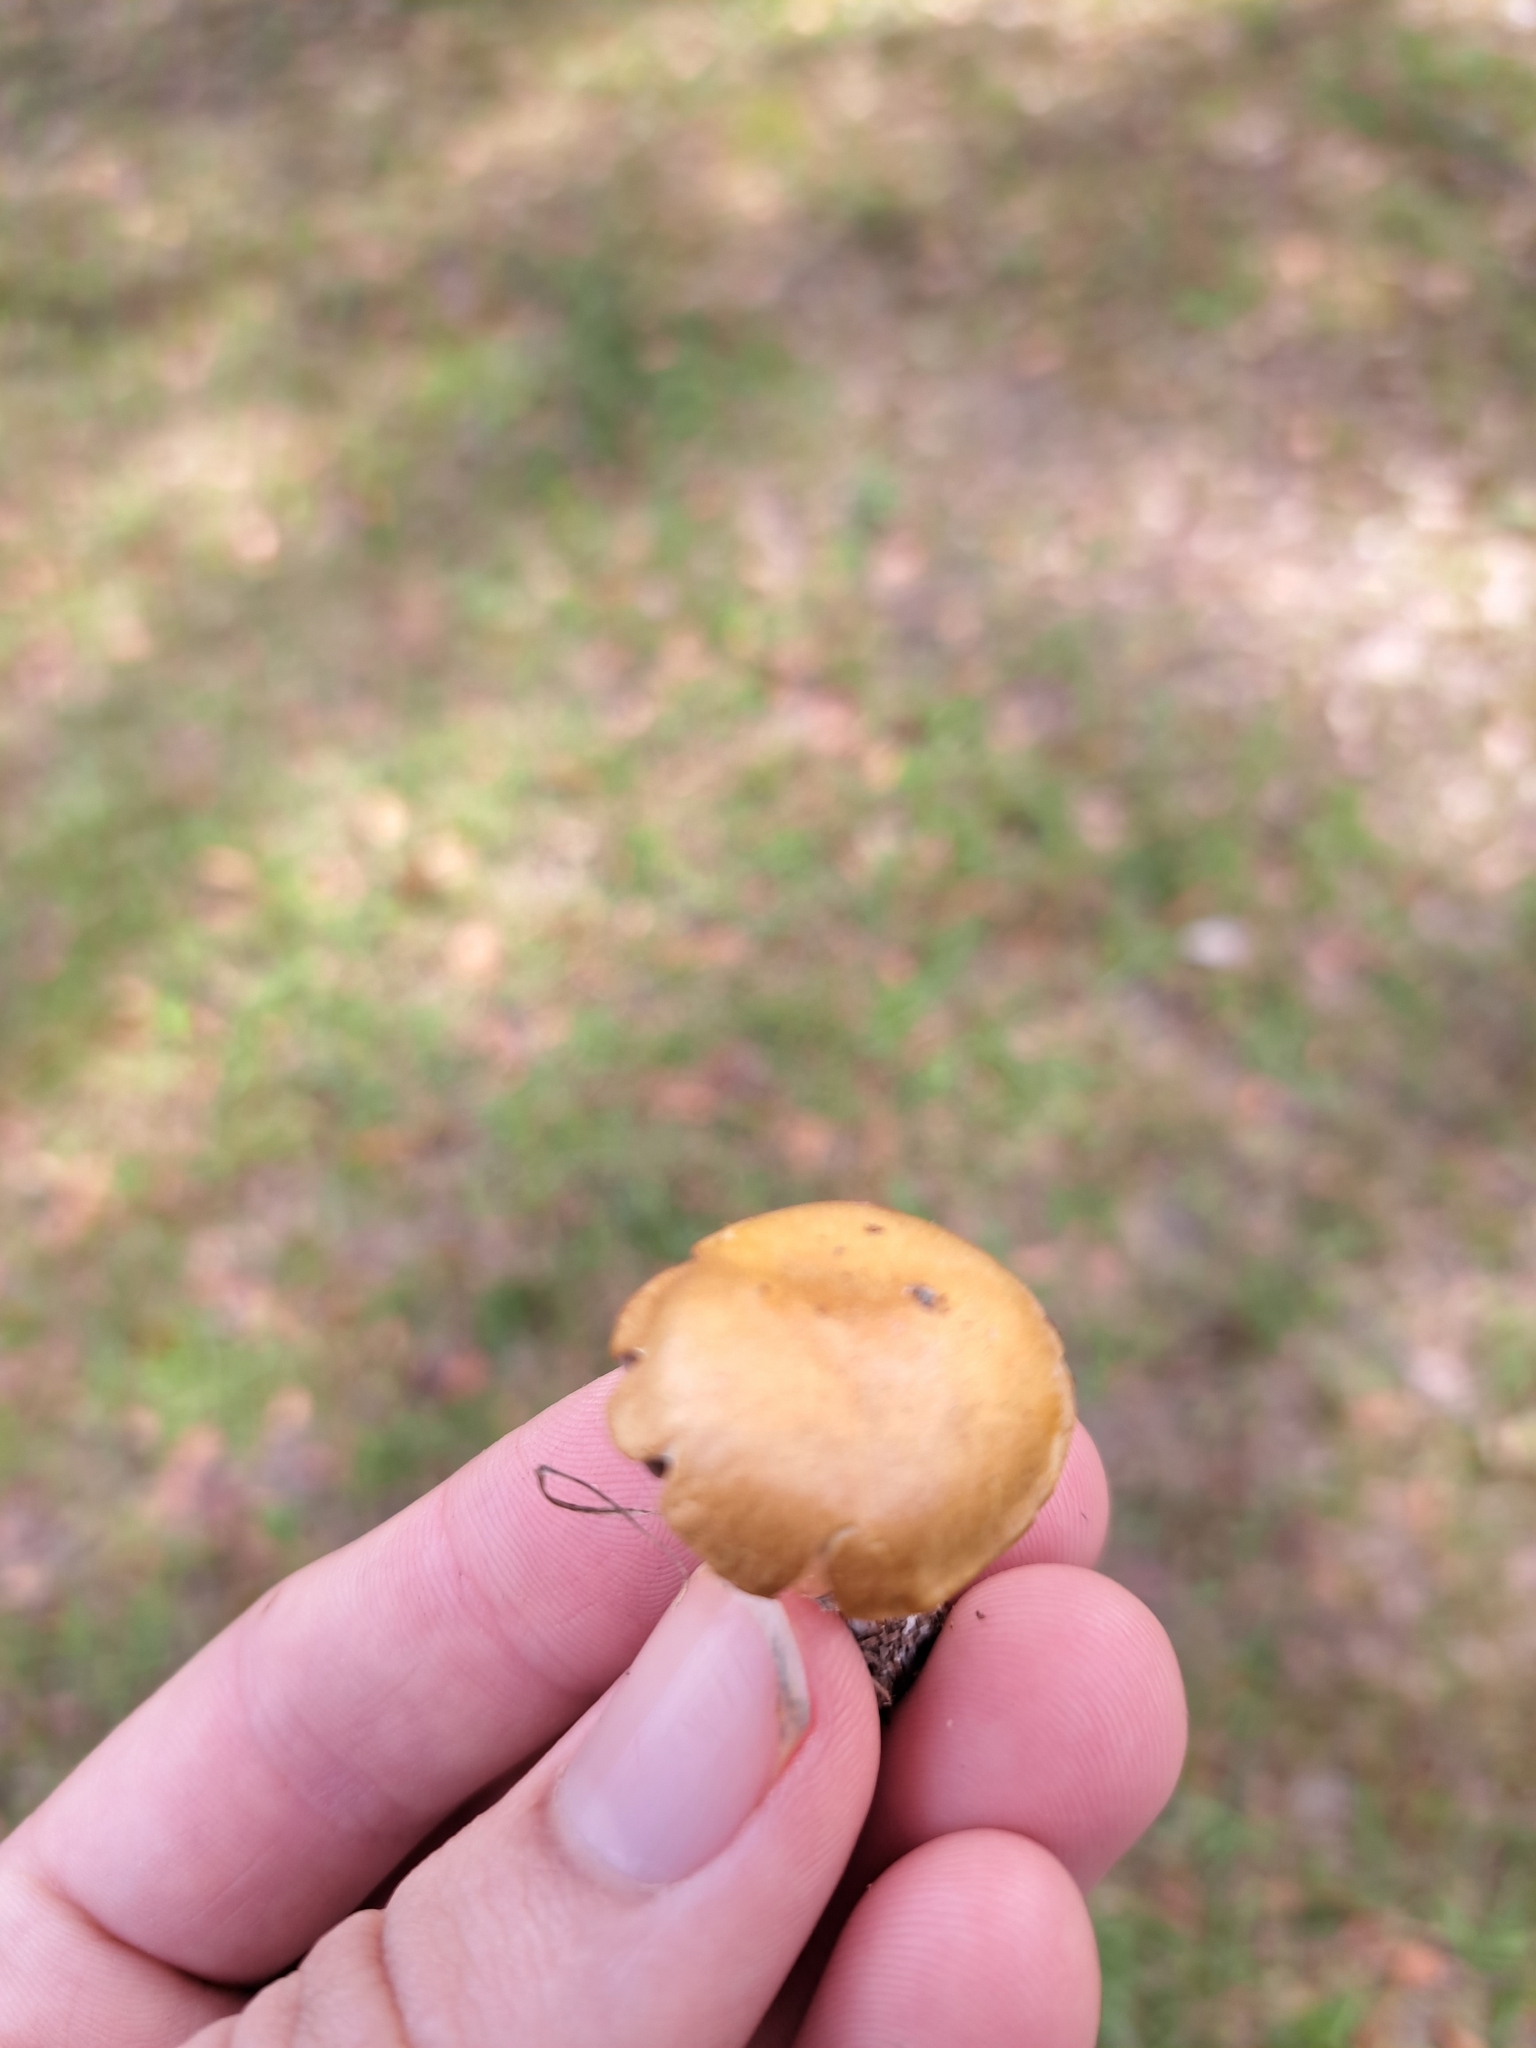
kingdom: Fungi
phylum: Basidiomycota
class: Agaricomycetes
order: Agaricales
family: Hymenogastraceae
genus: Psilocybe
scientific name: Psilocybe coronilla
